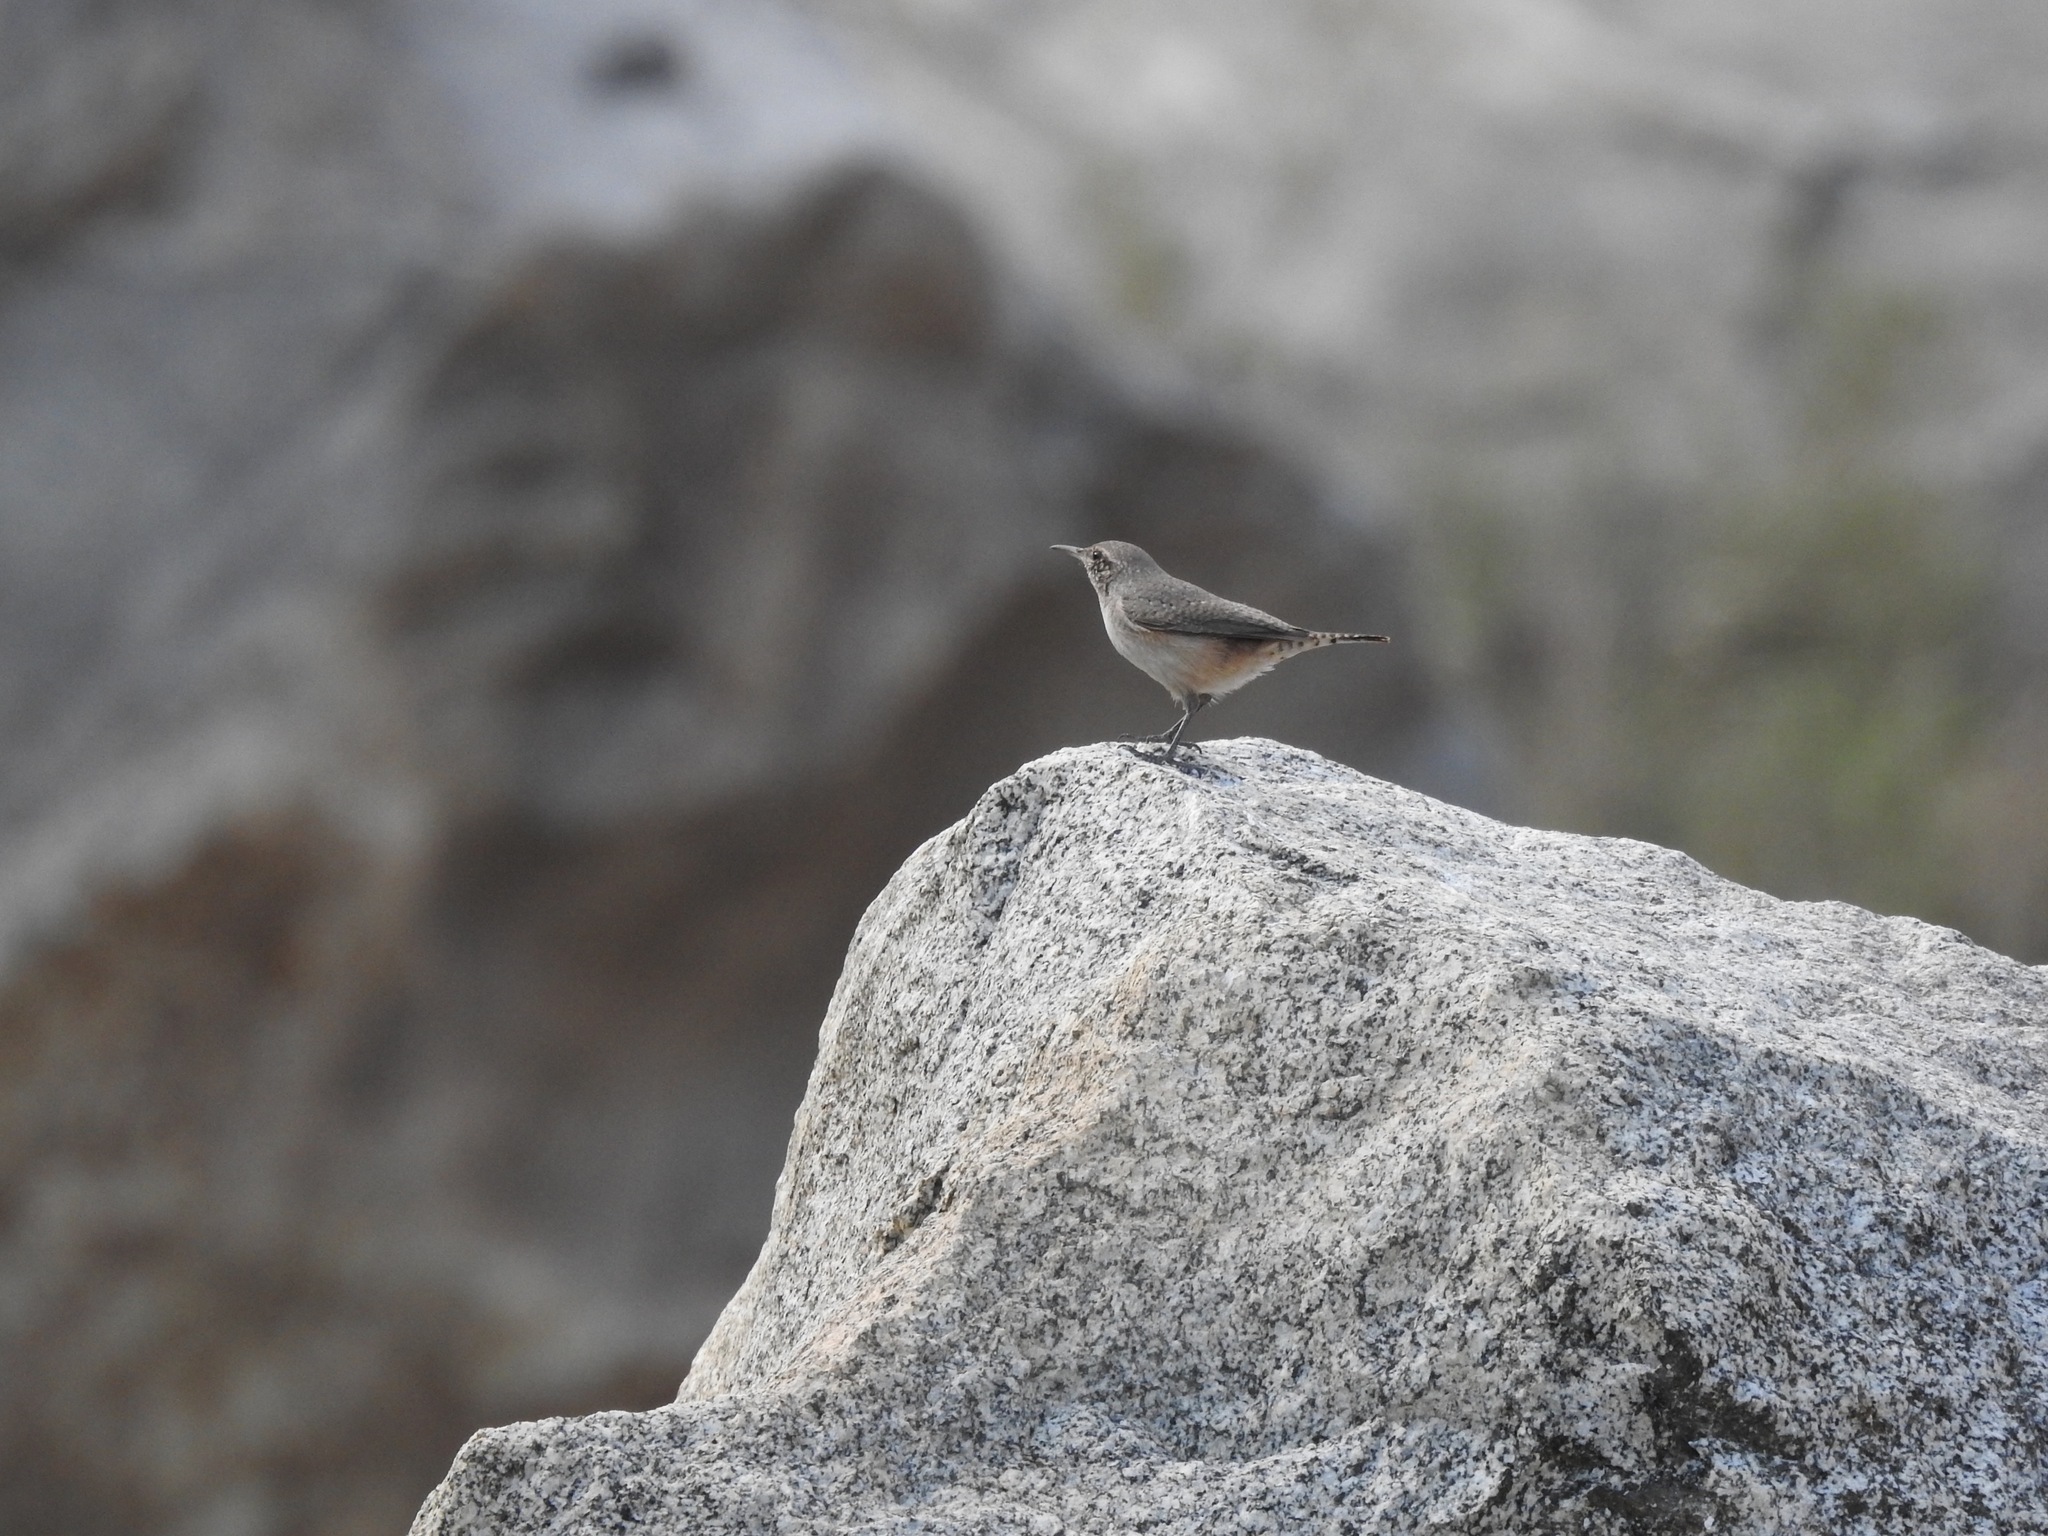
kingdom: Animalia
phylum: Chordata
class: Aves
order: Passeriformes
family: Troglodytidae
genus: Salpinctes
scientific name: Salpinctes obsoletus
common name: Rock wren
